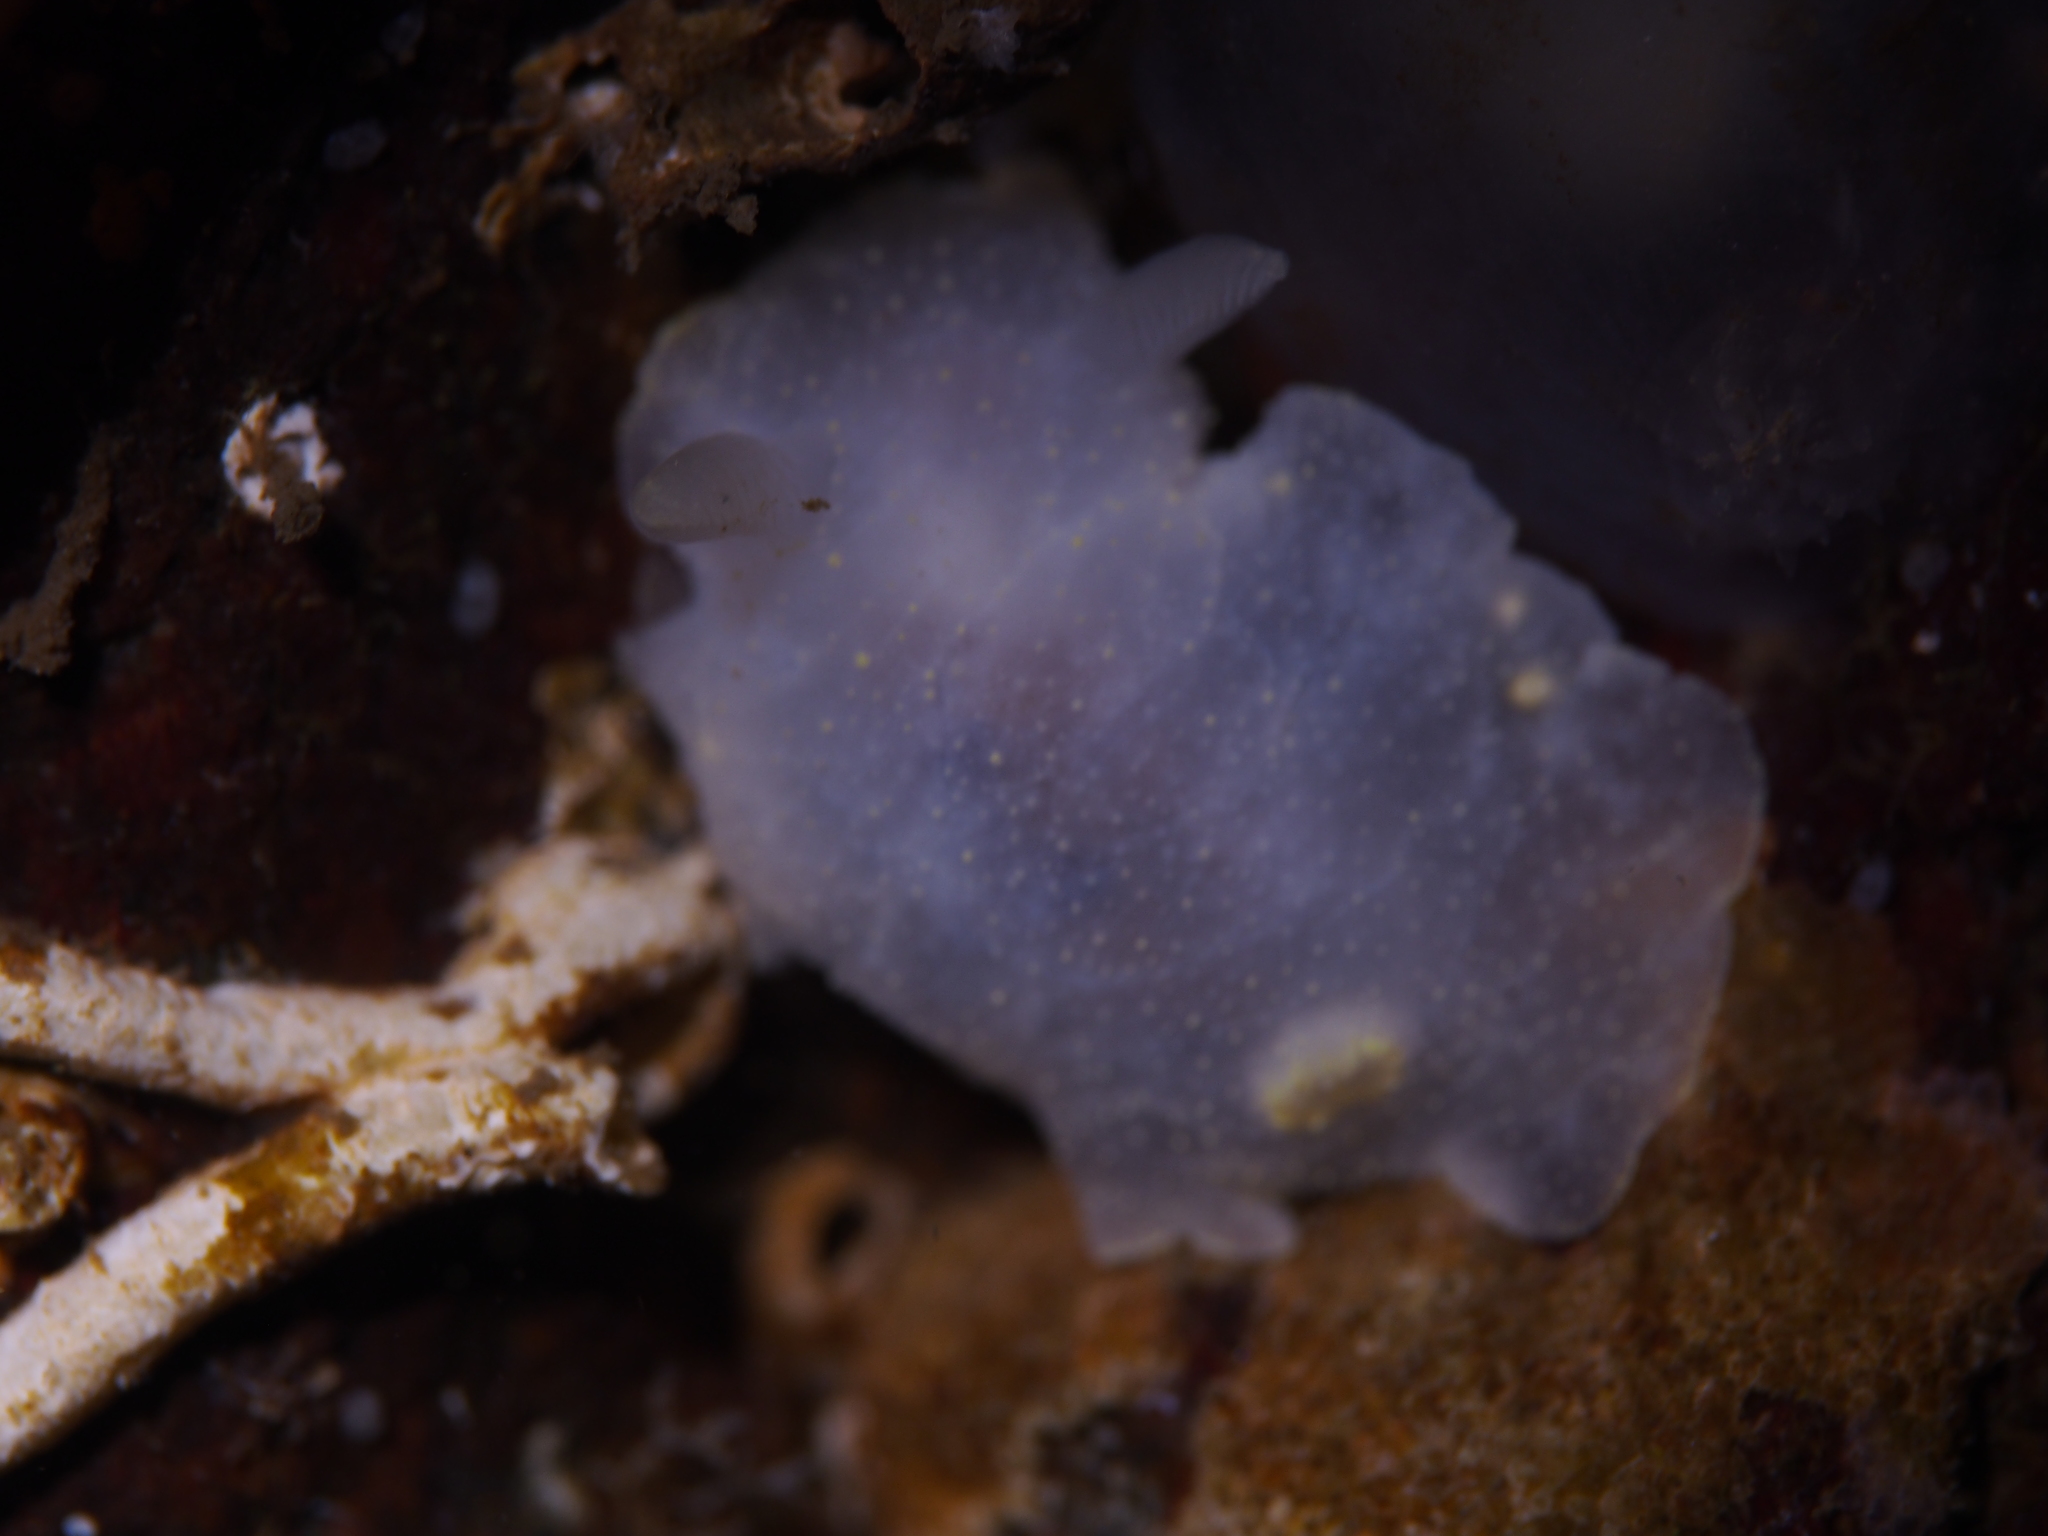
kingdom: Animalia
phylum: Mollusca
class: Gastropoda
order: Nudibranchia
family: Cadlinidae
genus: Cadlina
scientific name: Cadlina laevis
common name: White atlantic cadlina
